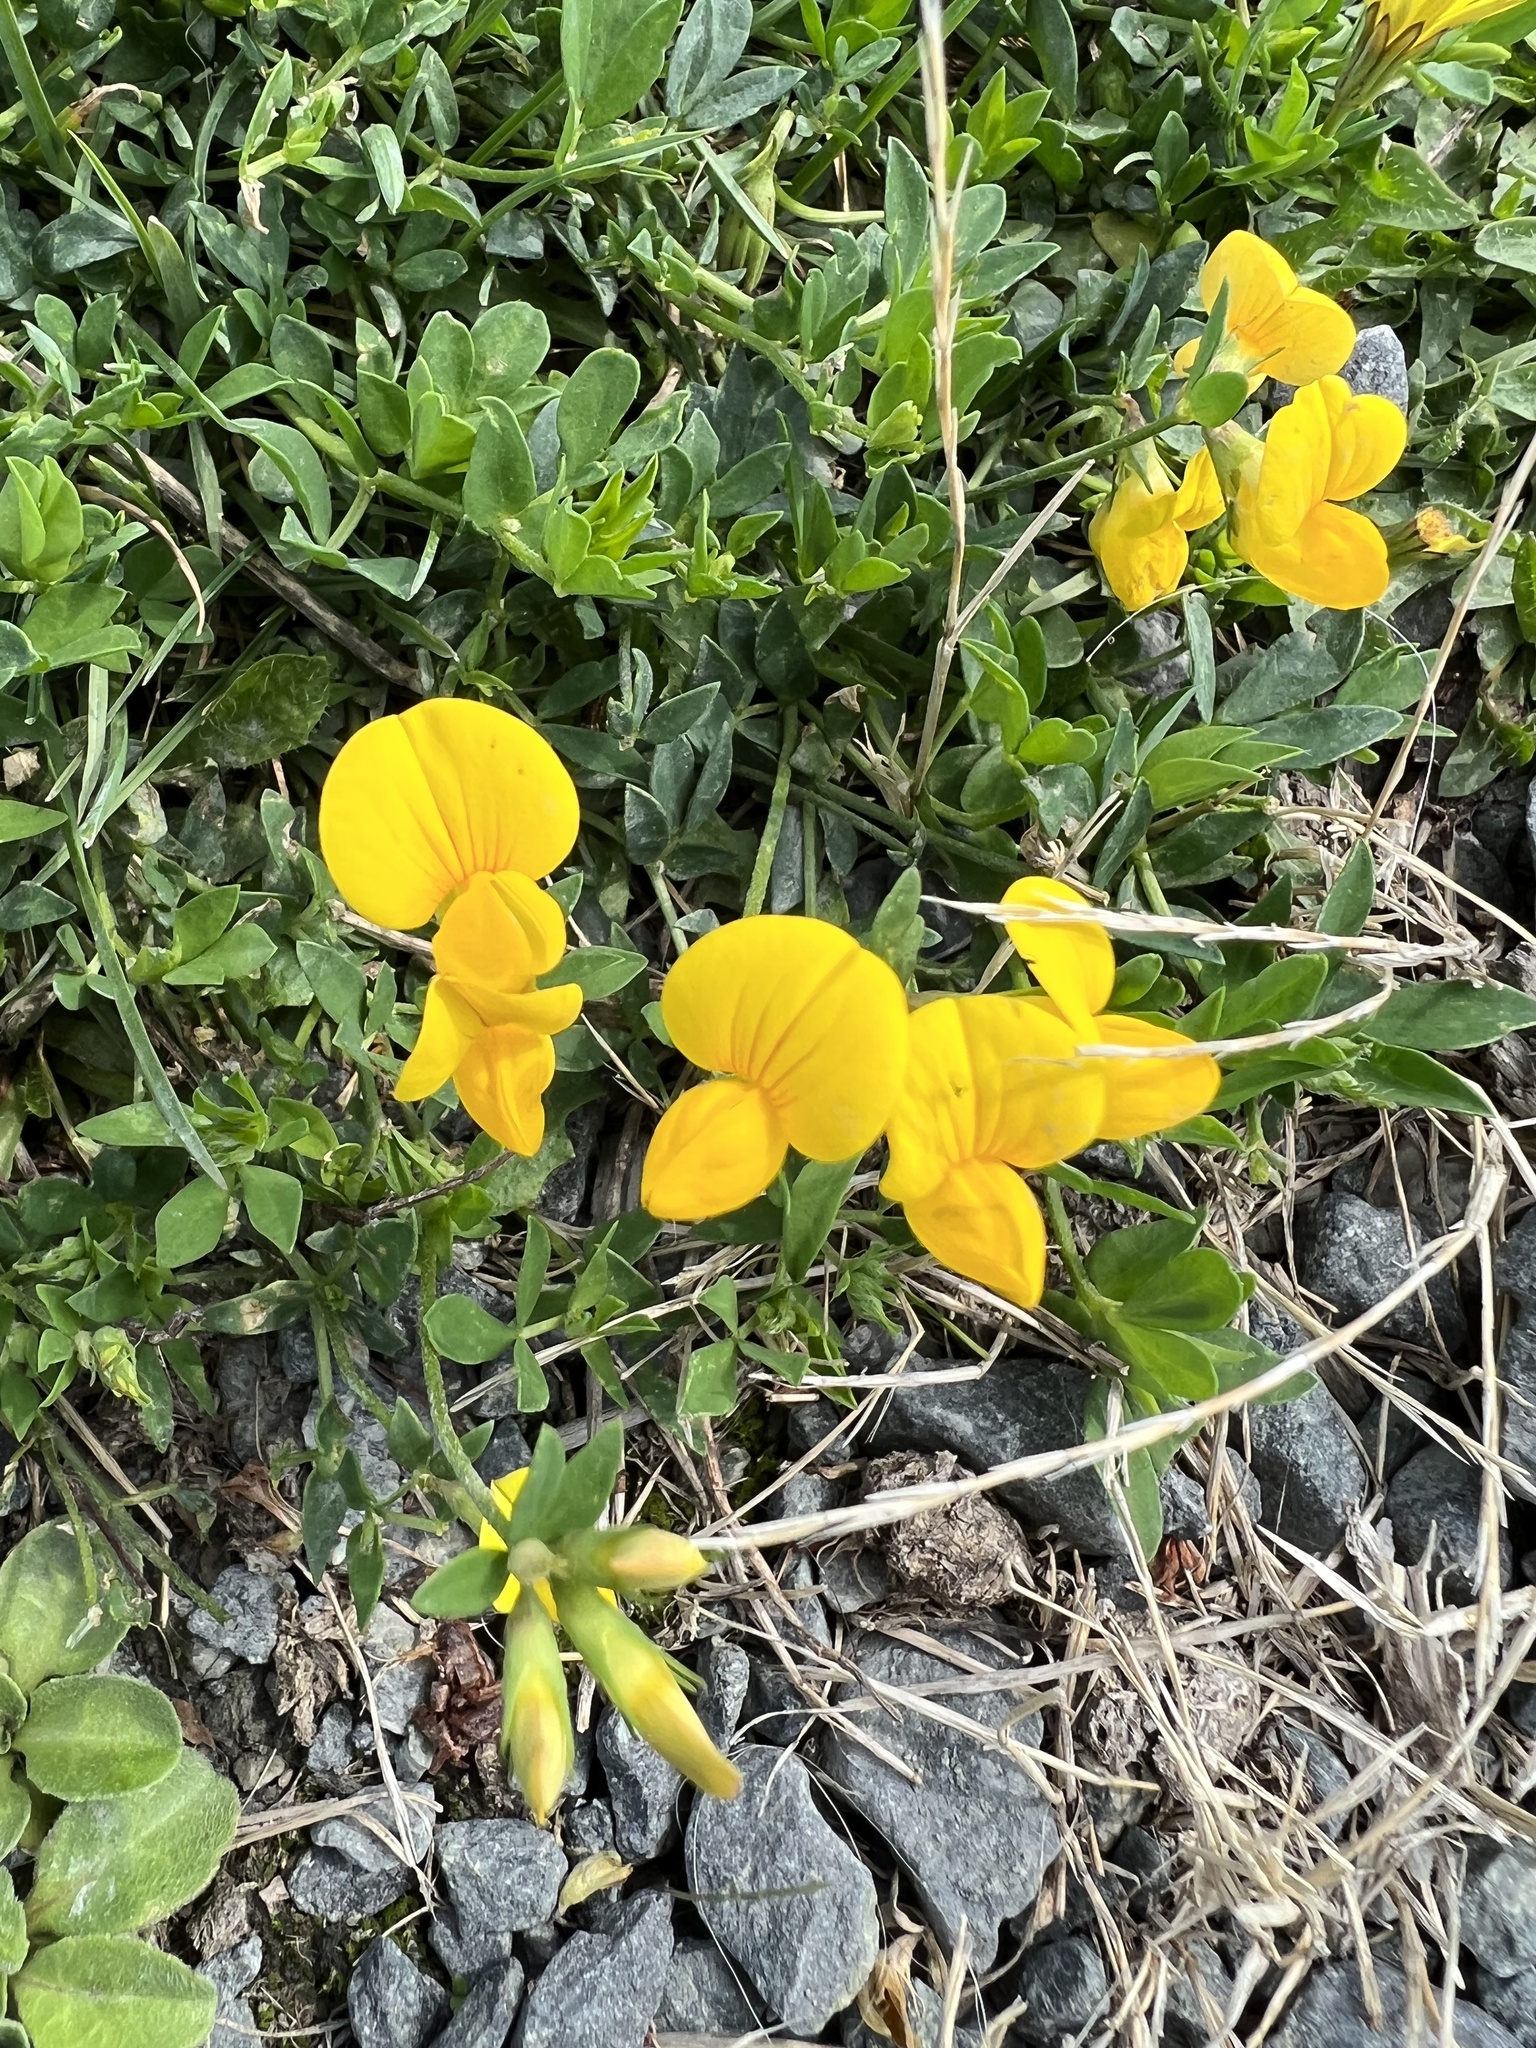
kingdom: Plantae
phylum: Tracheophyta
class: Magnoliopsida
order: Fabales
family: Fabaceae
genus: Lotus
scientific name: Lotus corniculatus
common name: Common bird's-foot-trefoil
